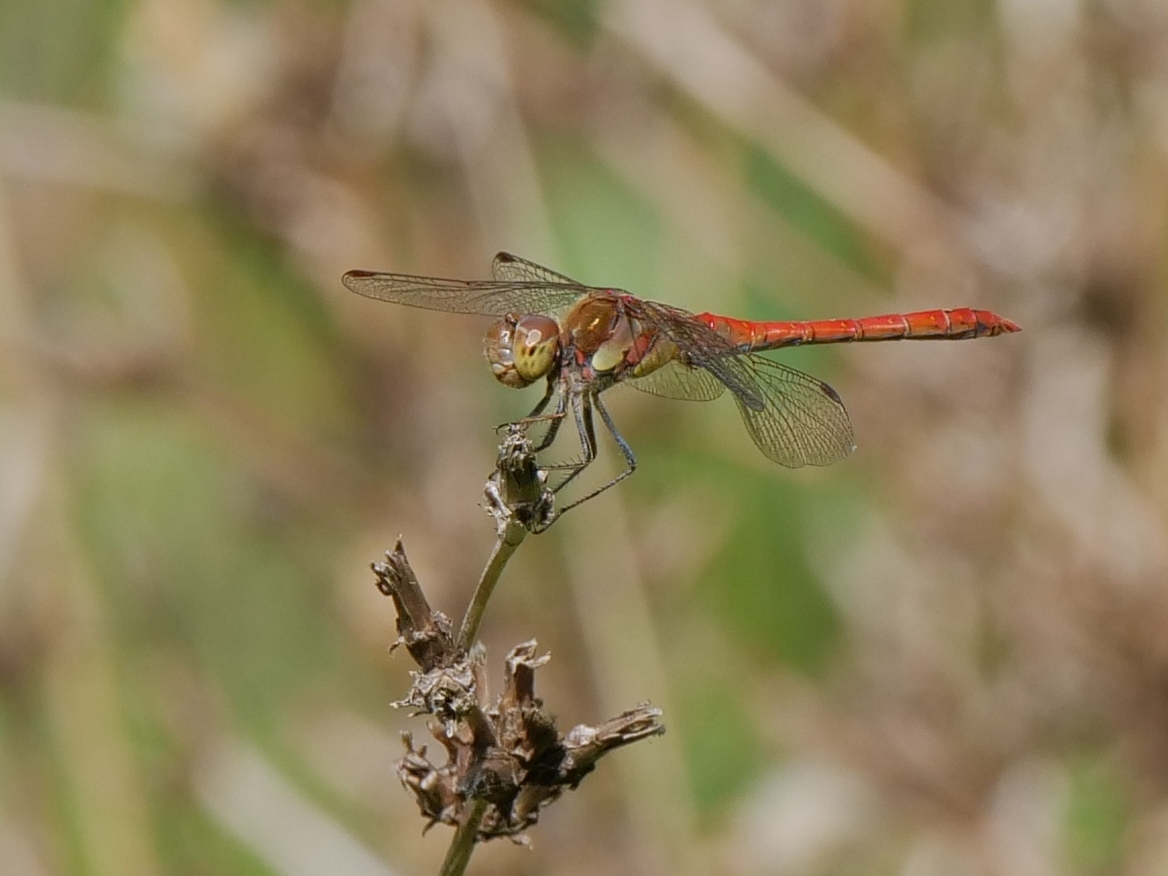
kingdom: Animalia
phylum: Arthropoda
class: Insecta
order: Odonata
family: Libellulidae
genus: Sympetrum
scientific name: Sympetrum striolatum
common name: Common darter
